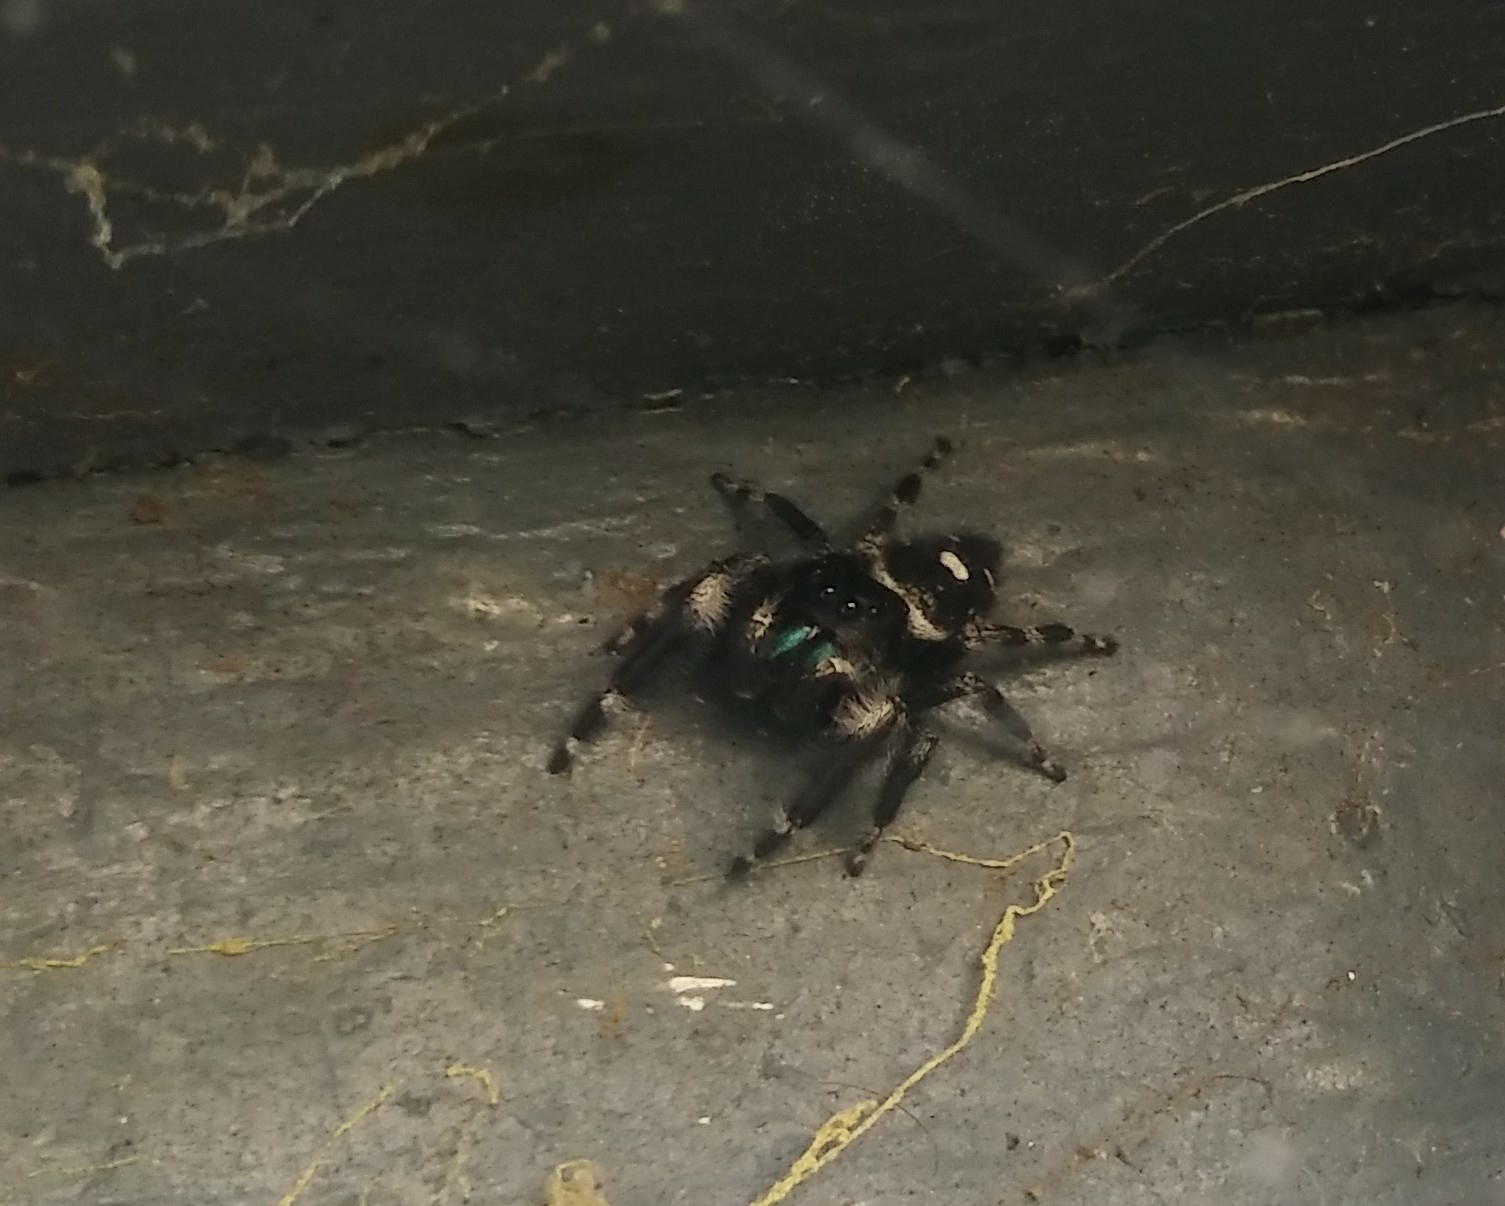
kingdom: Animalia
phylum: Arthropoda
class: Arachnida
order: Araneae
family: Salticidae
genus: Phidippus
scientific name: Phidippus audax
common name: Bold jumper
